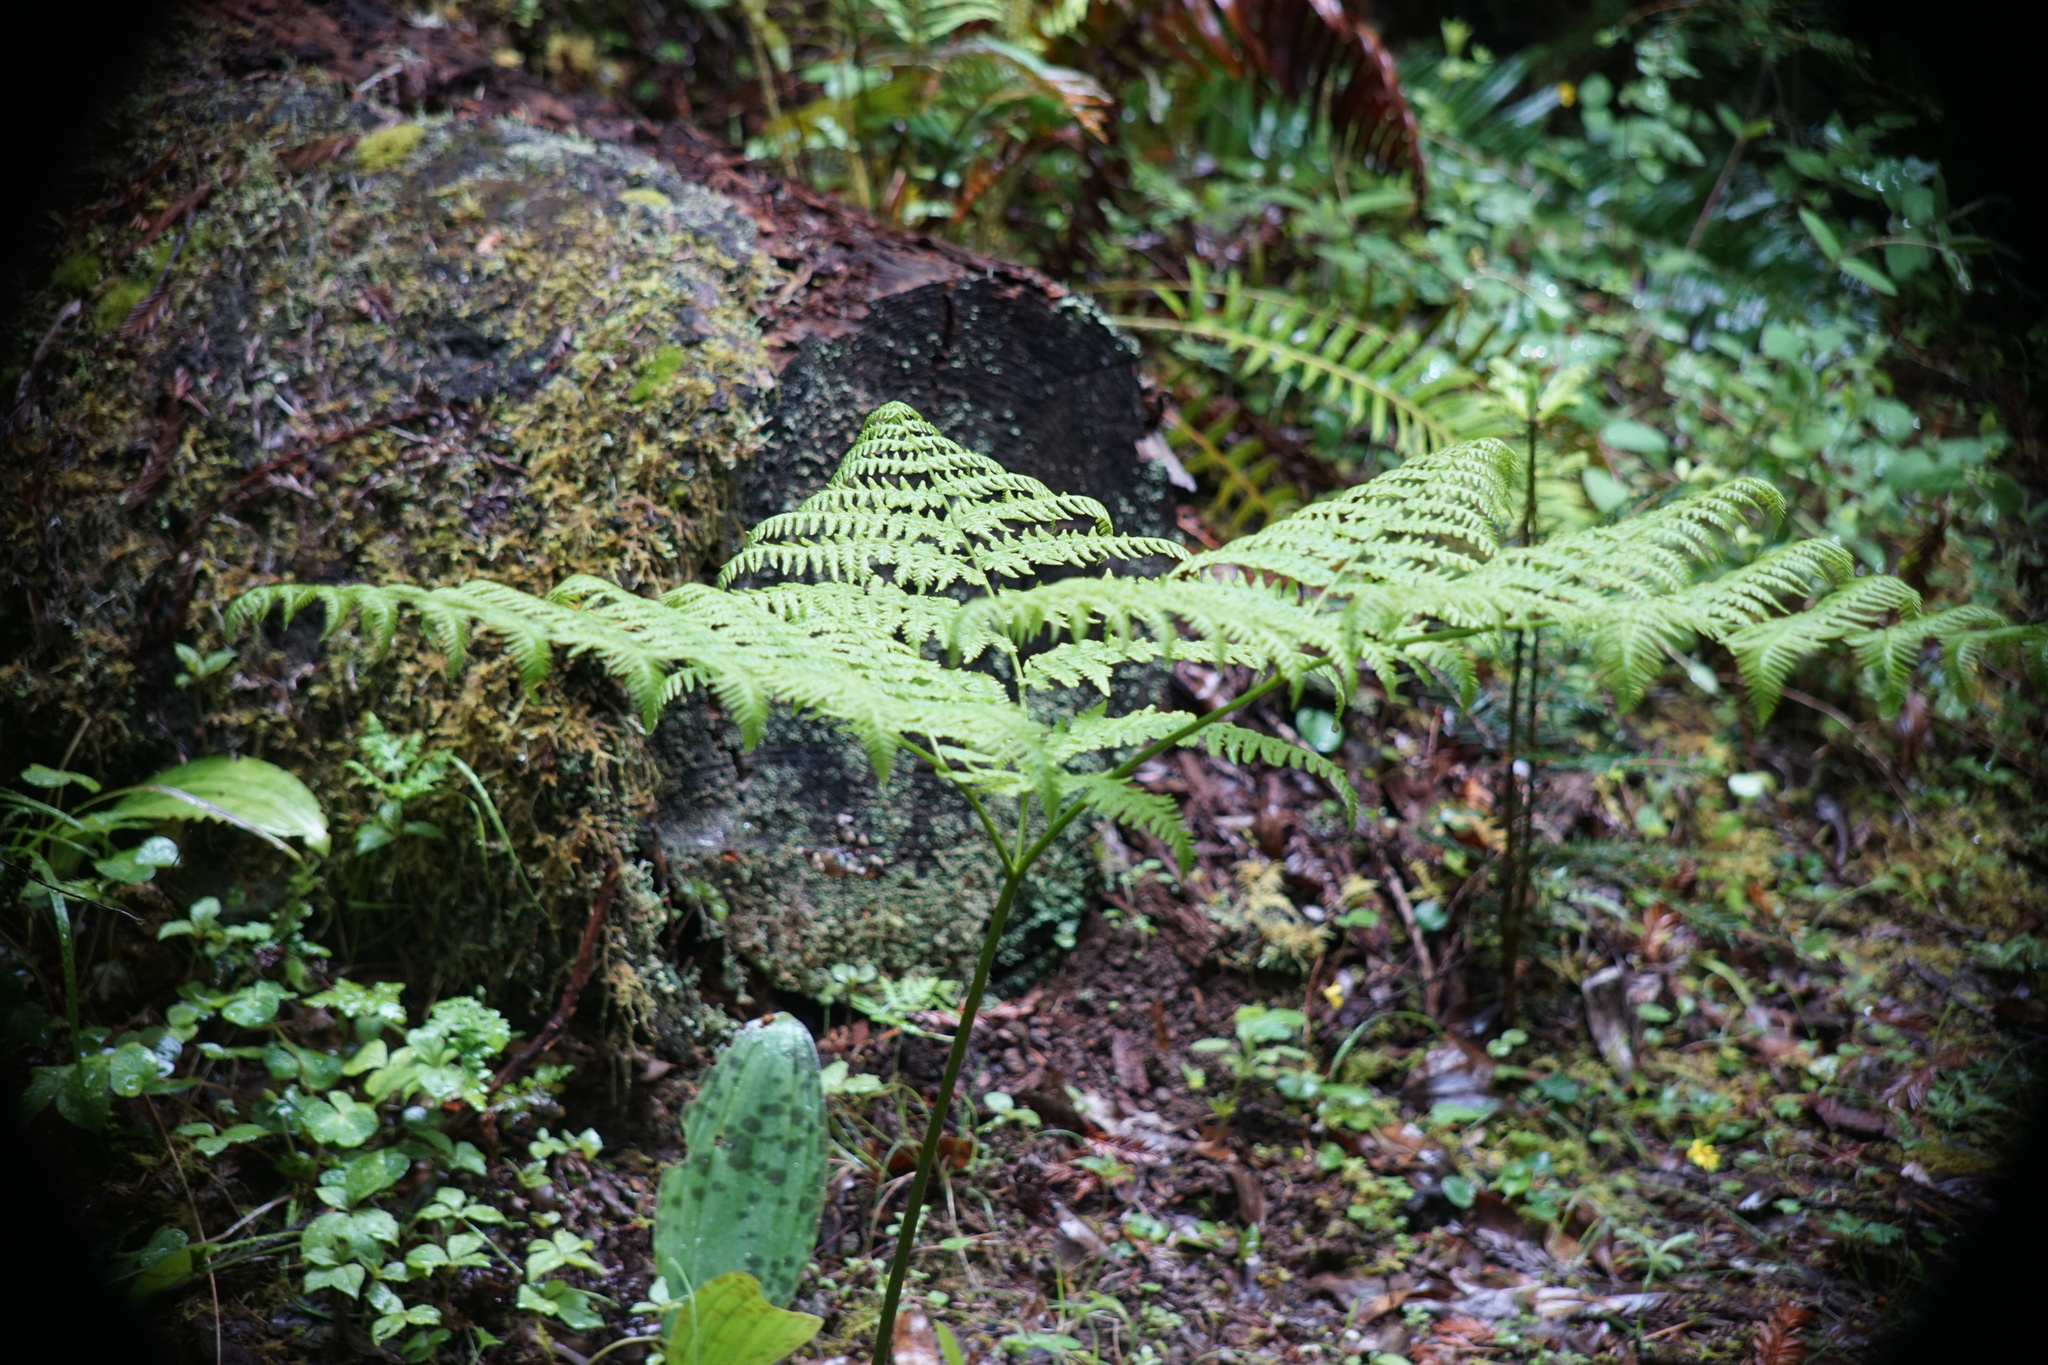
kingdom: Plantae
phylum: Tracheophyta
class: Polypodiopsida
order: Polypodiales
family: Dennstaedtiaceae
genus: Pteridium
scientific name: Pteridium aquilinum
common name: Bracken
